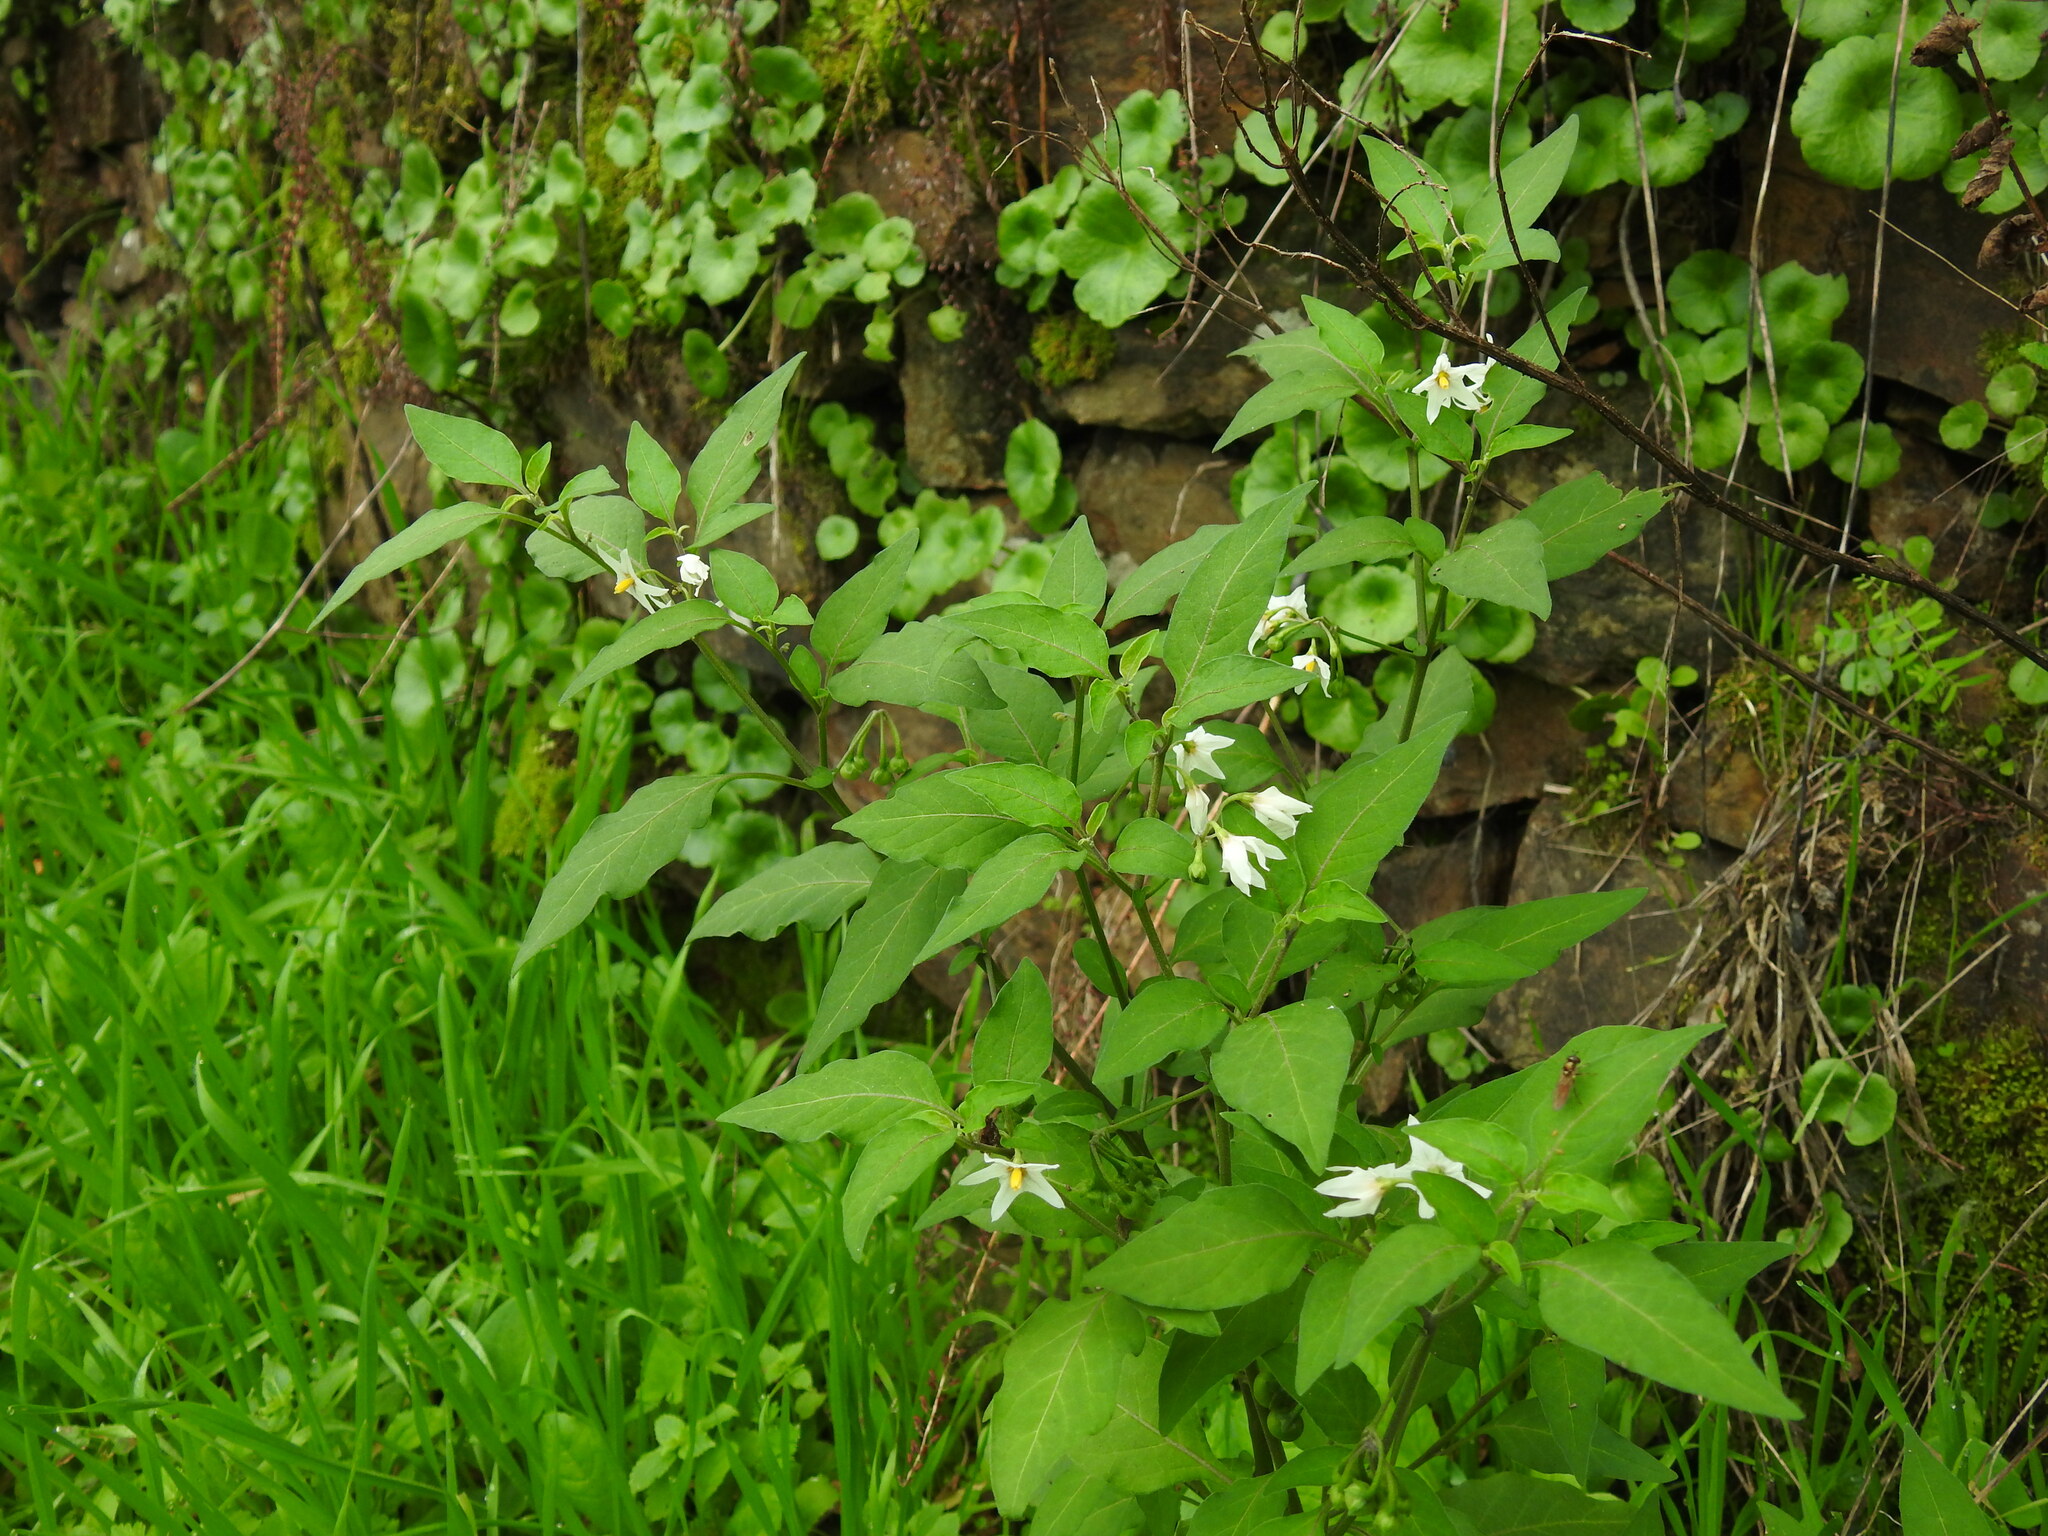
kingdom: Plantae
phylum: Tracheophyta
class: Magnoliopsida
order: Solanales
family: Solanaceae
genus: Solanum
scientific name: Solanum chenopodioides
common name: Tall nightshade
